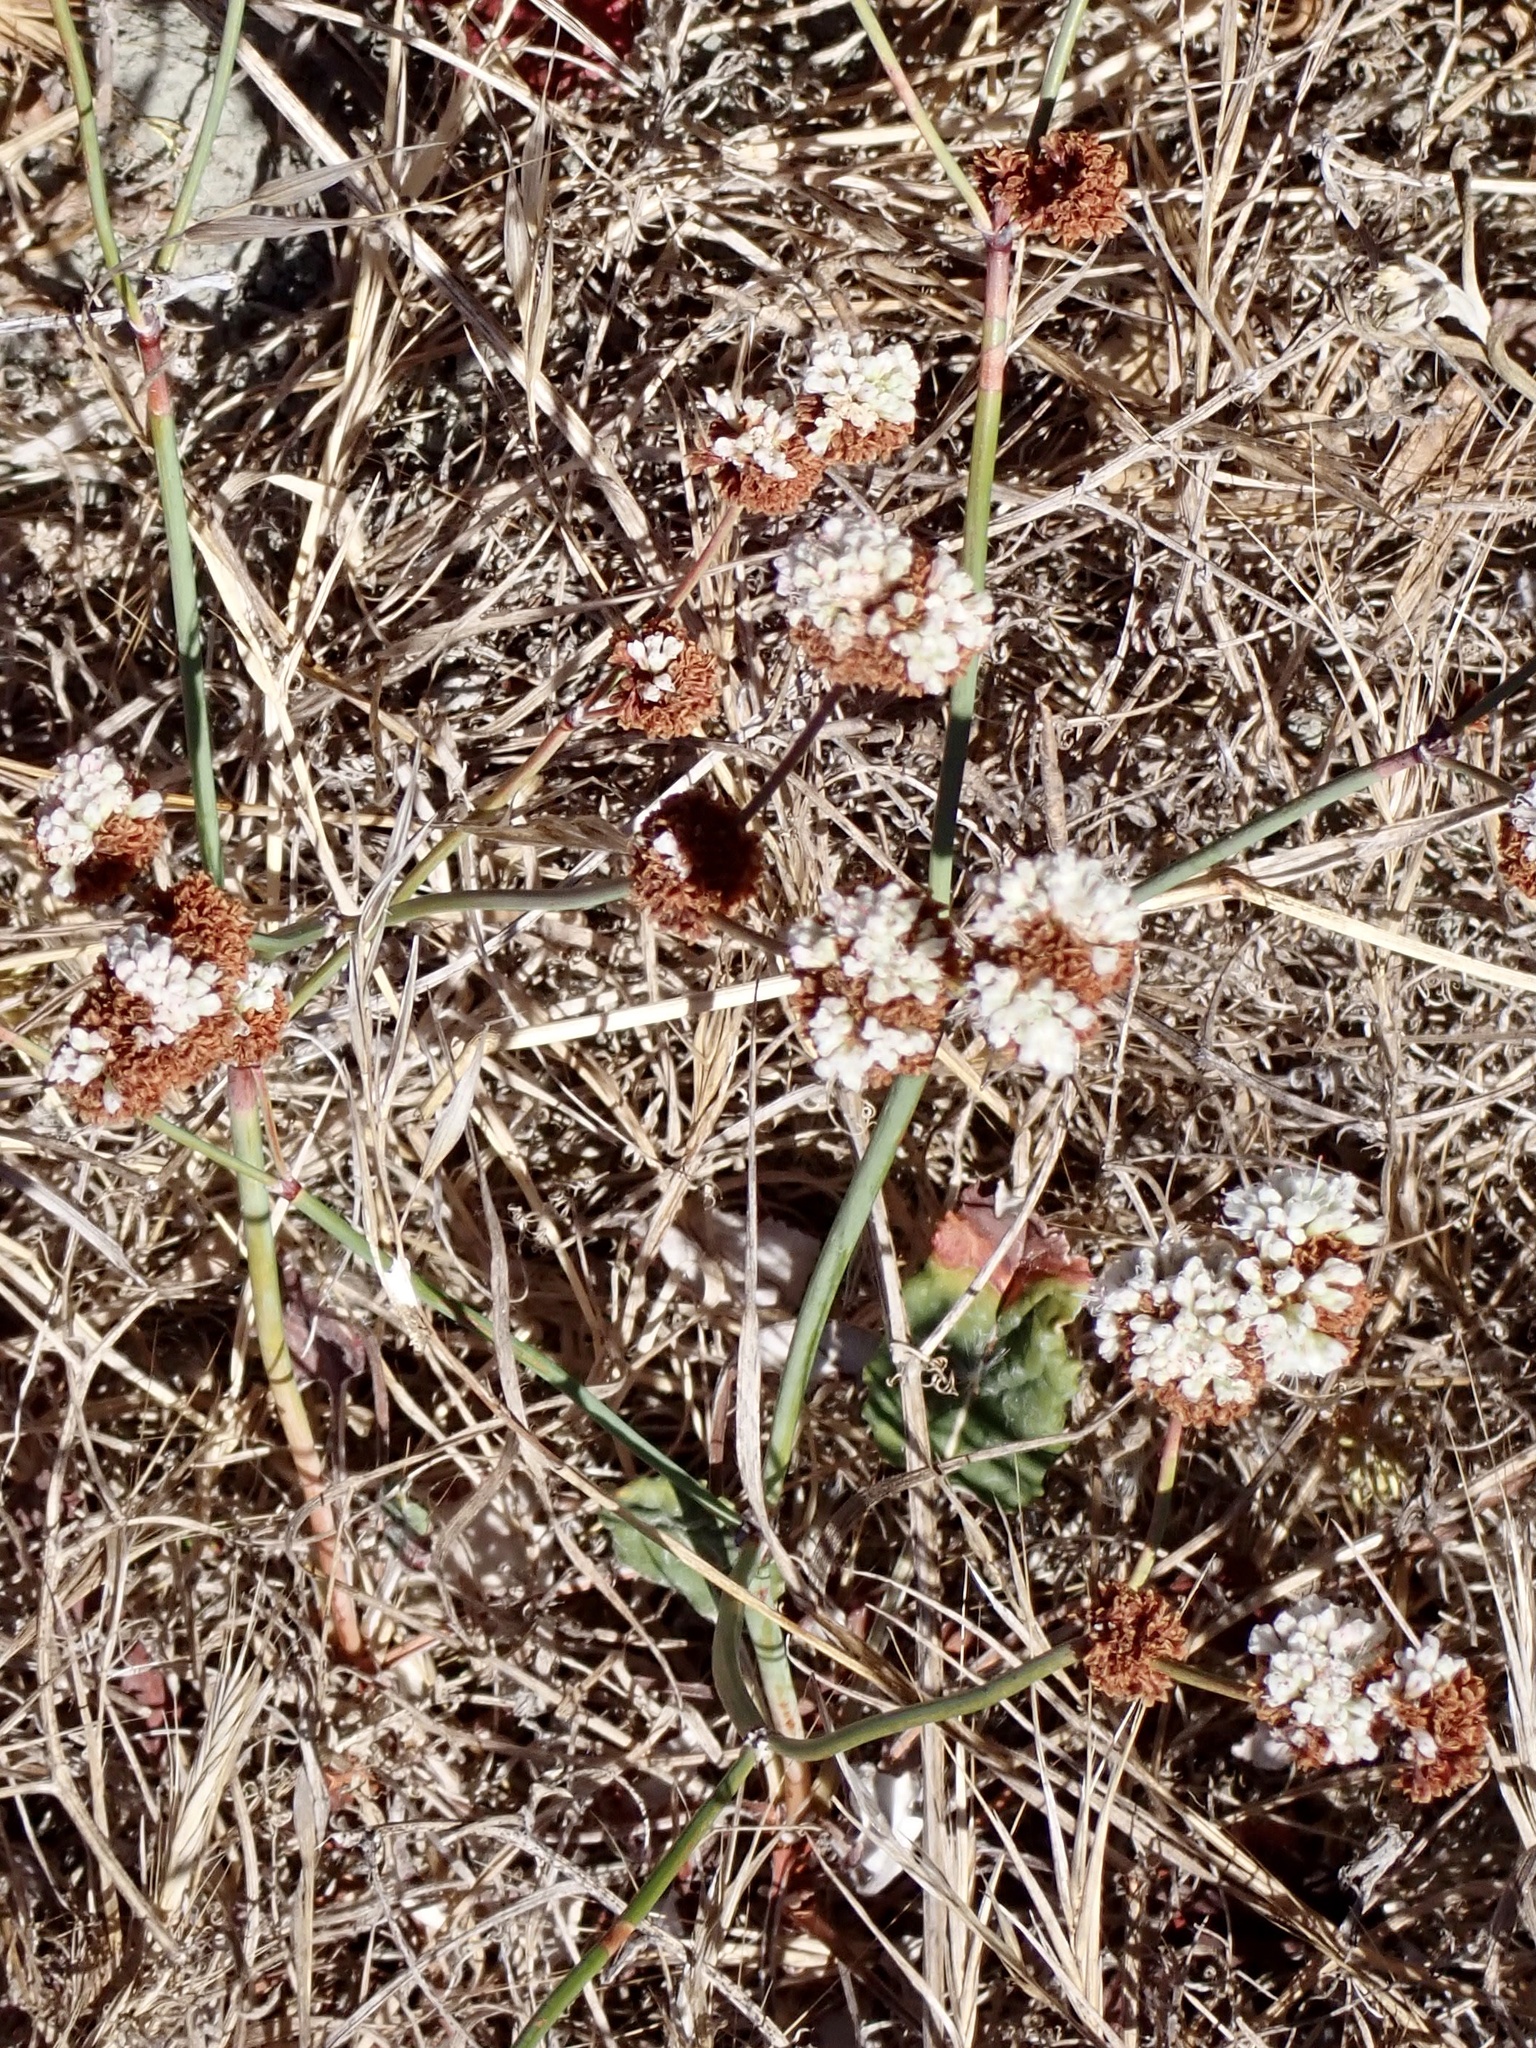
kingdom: Plantae
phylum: Tracheophyta
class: Magnoliopsida
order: Caryophyllales
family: Polygonaceae
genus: Eriogonum
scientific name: Eriogonum nudum
